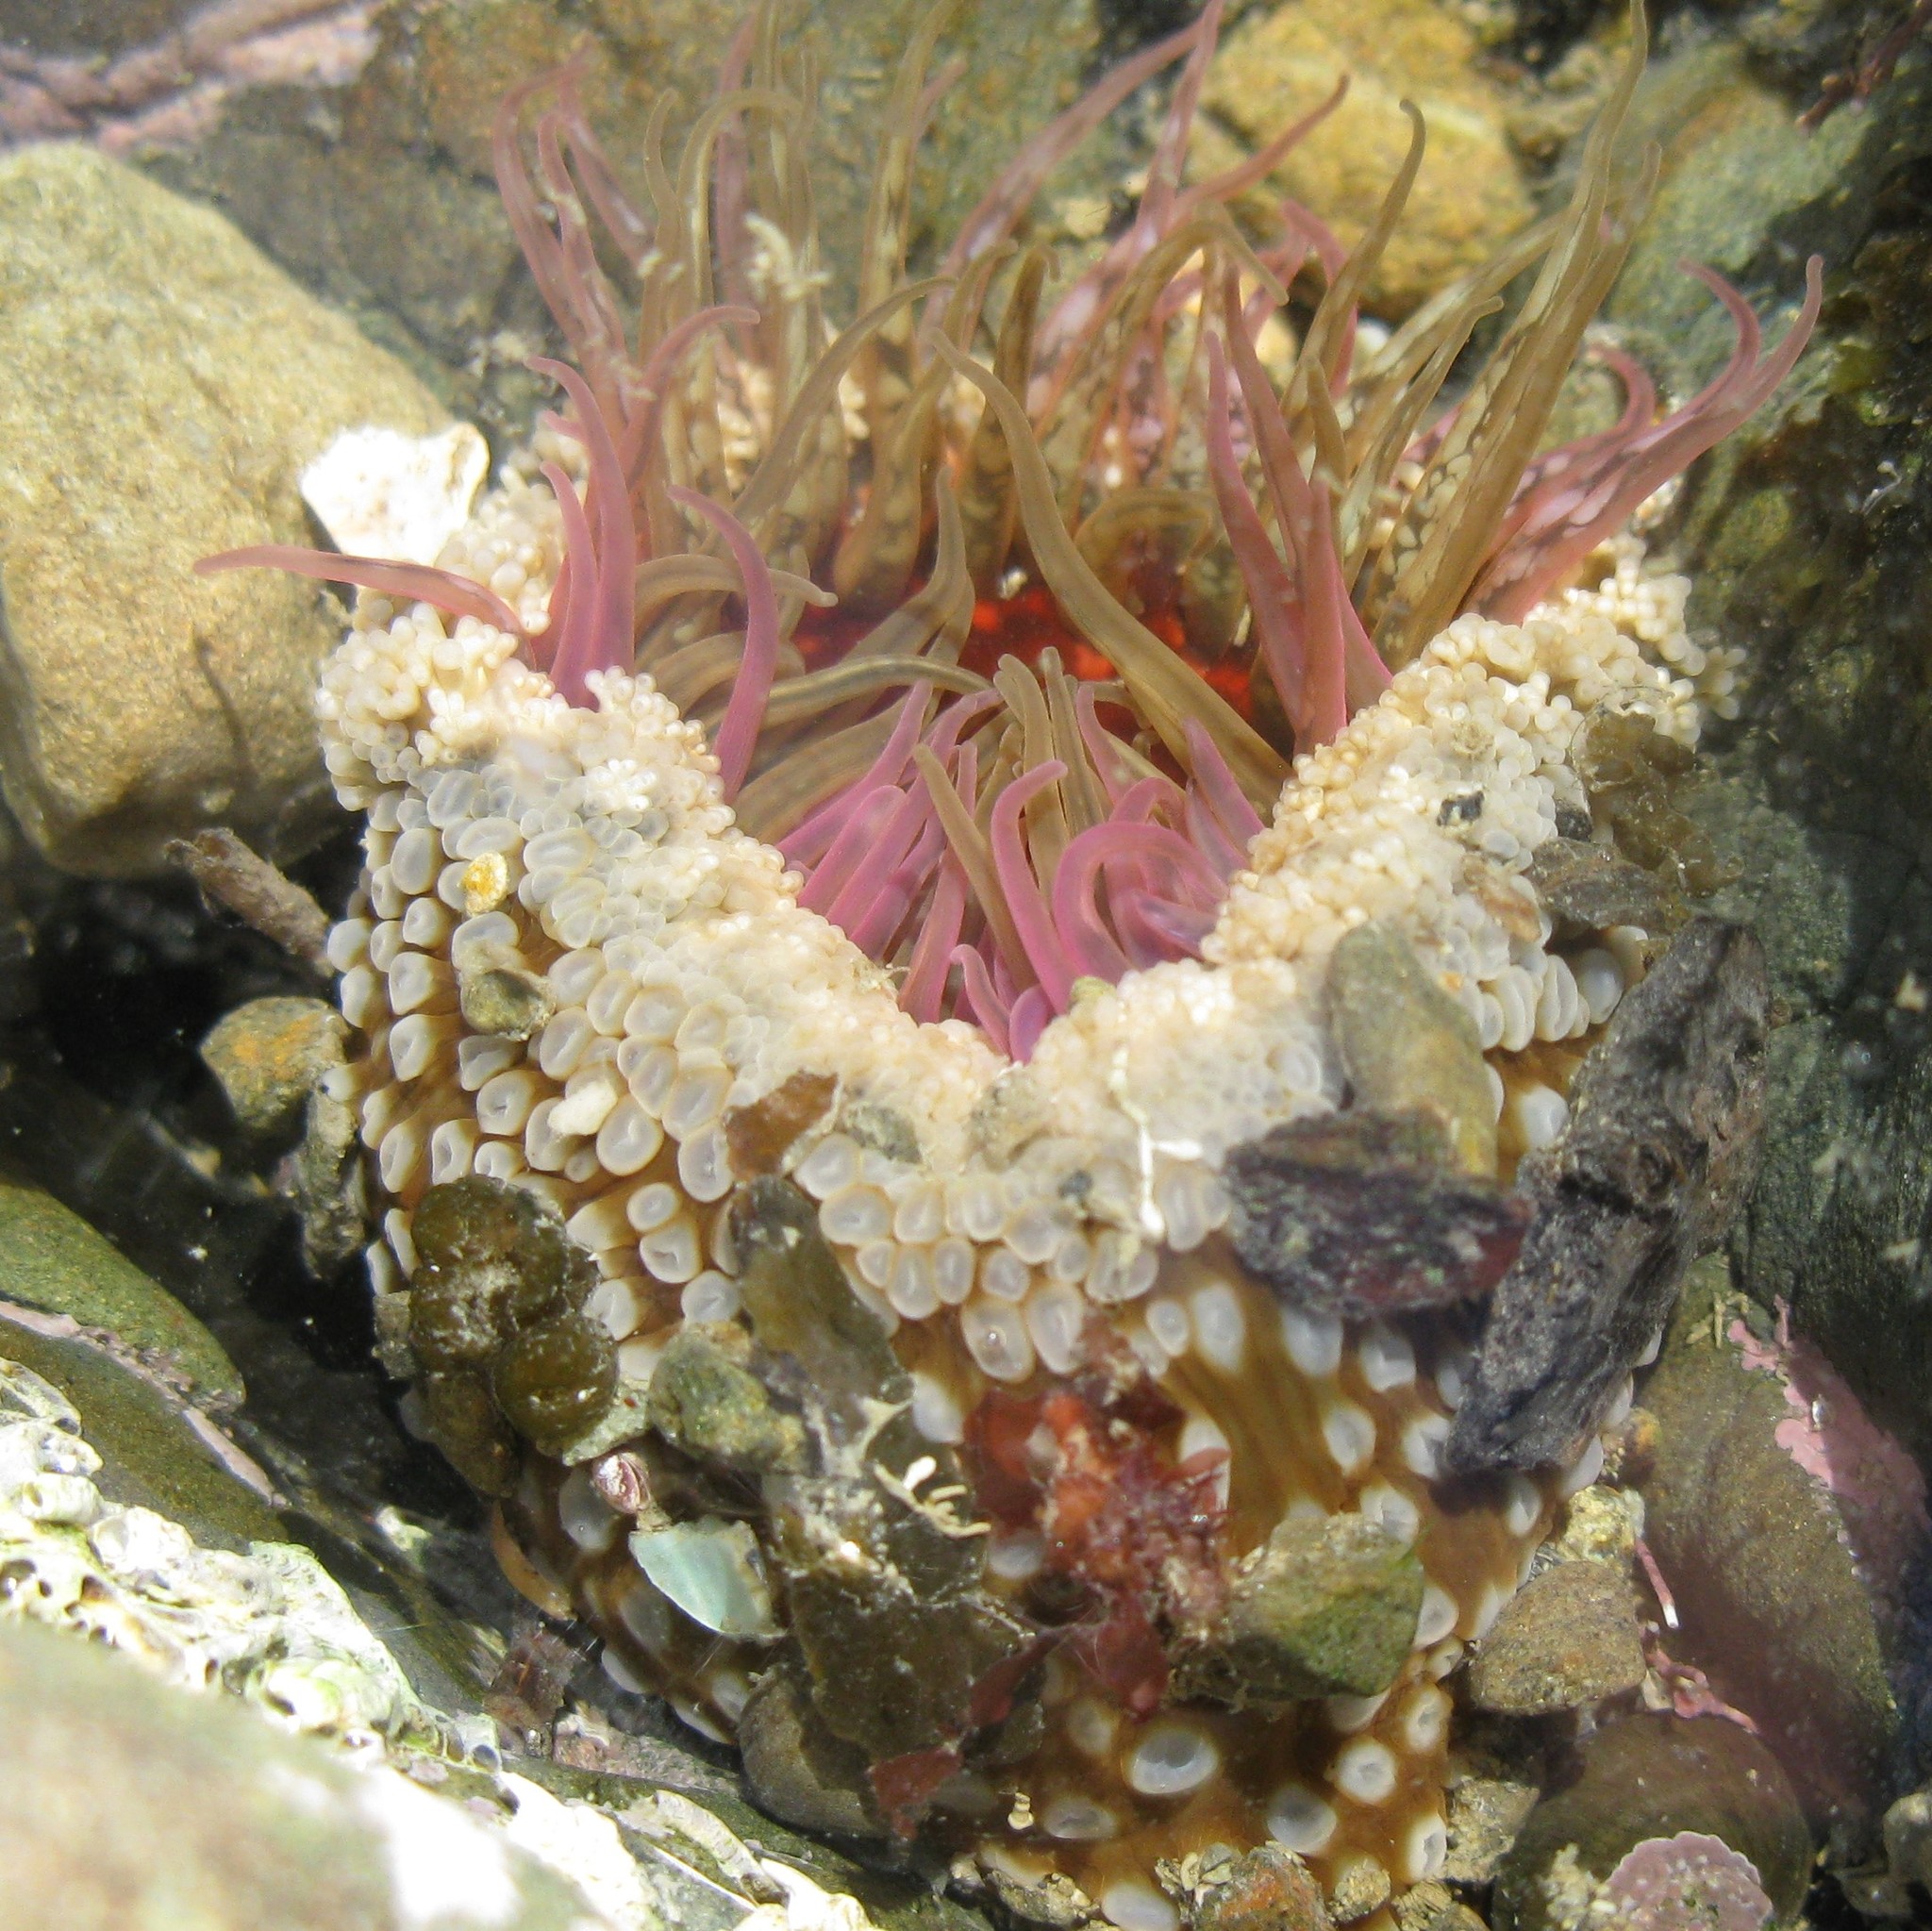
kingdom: Animalia
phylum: Cnidaria
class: Anthozoa
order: Actiniaria
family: Actiniidae
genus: Oulactis
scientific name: Oulactis muscosa
